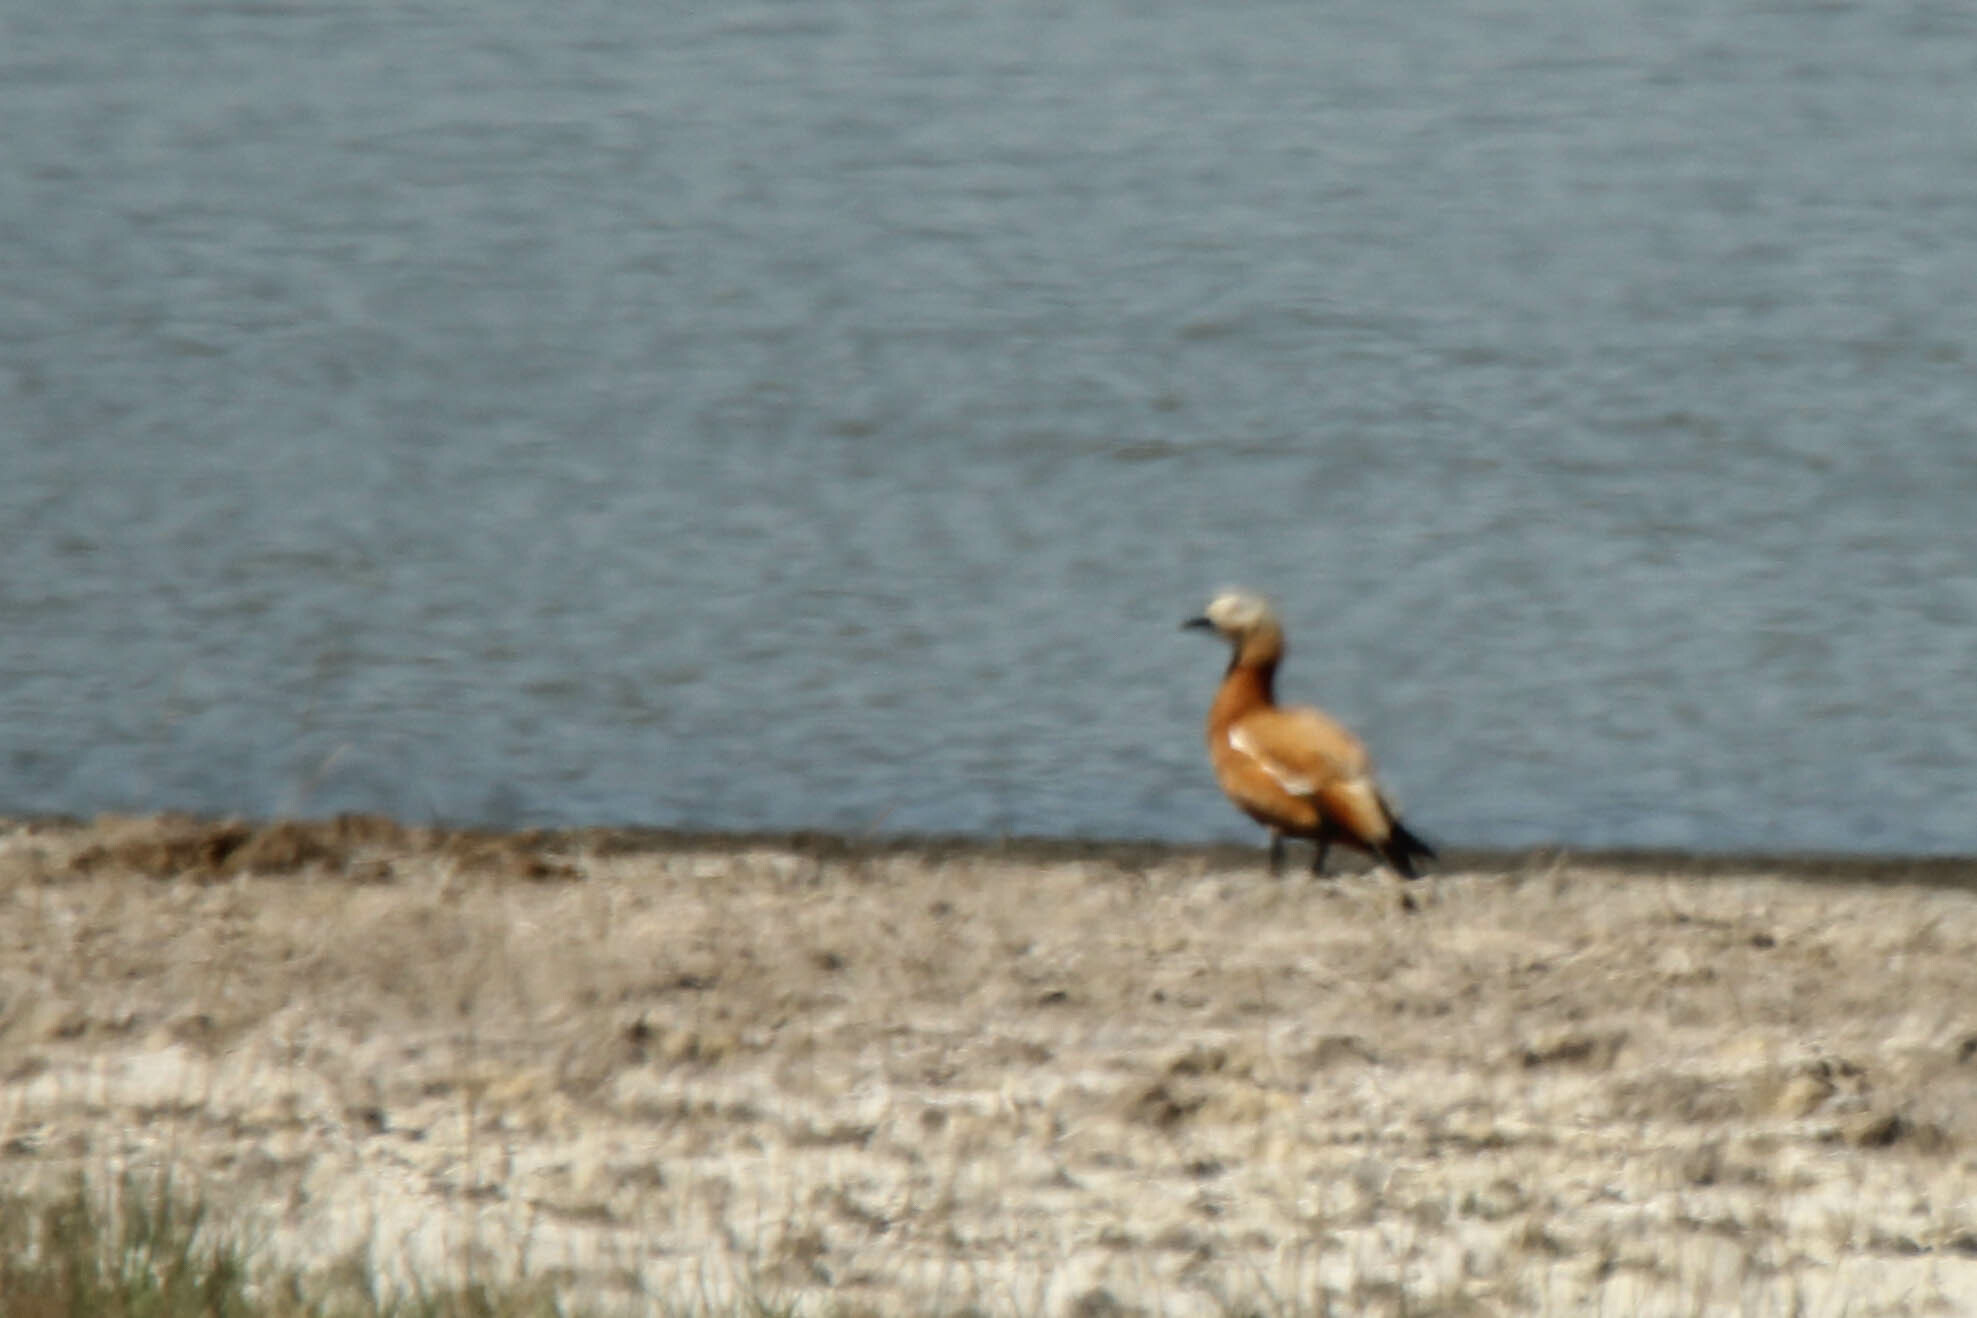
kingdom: Animalia
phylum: Chordata
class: Aves
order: Anseriformes
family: Anatidae
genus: Tadorna
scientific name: Tadorna ferruginea
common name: Ruddy shelduck
